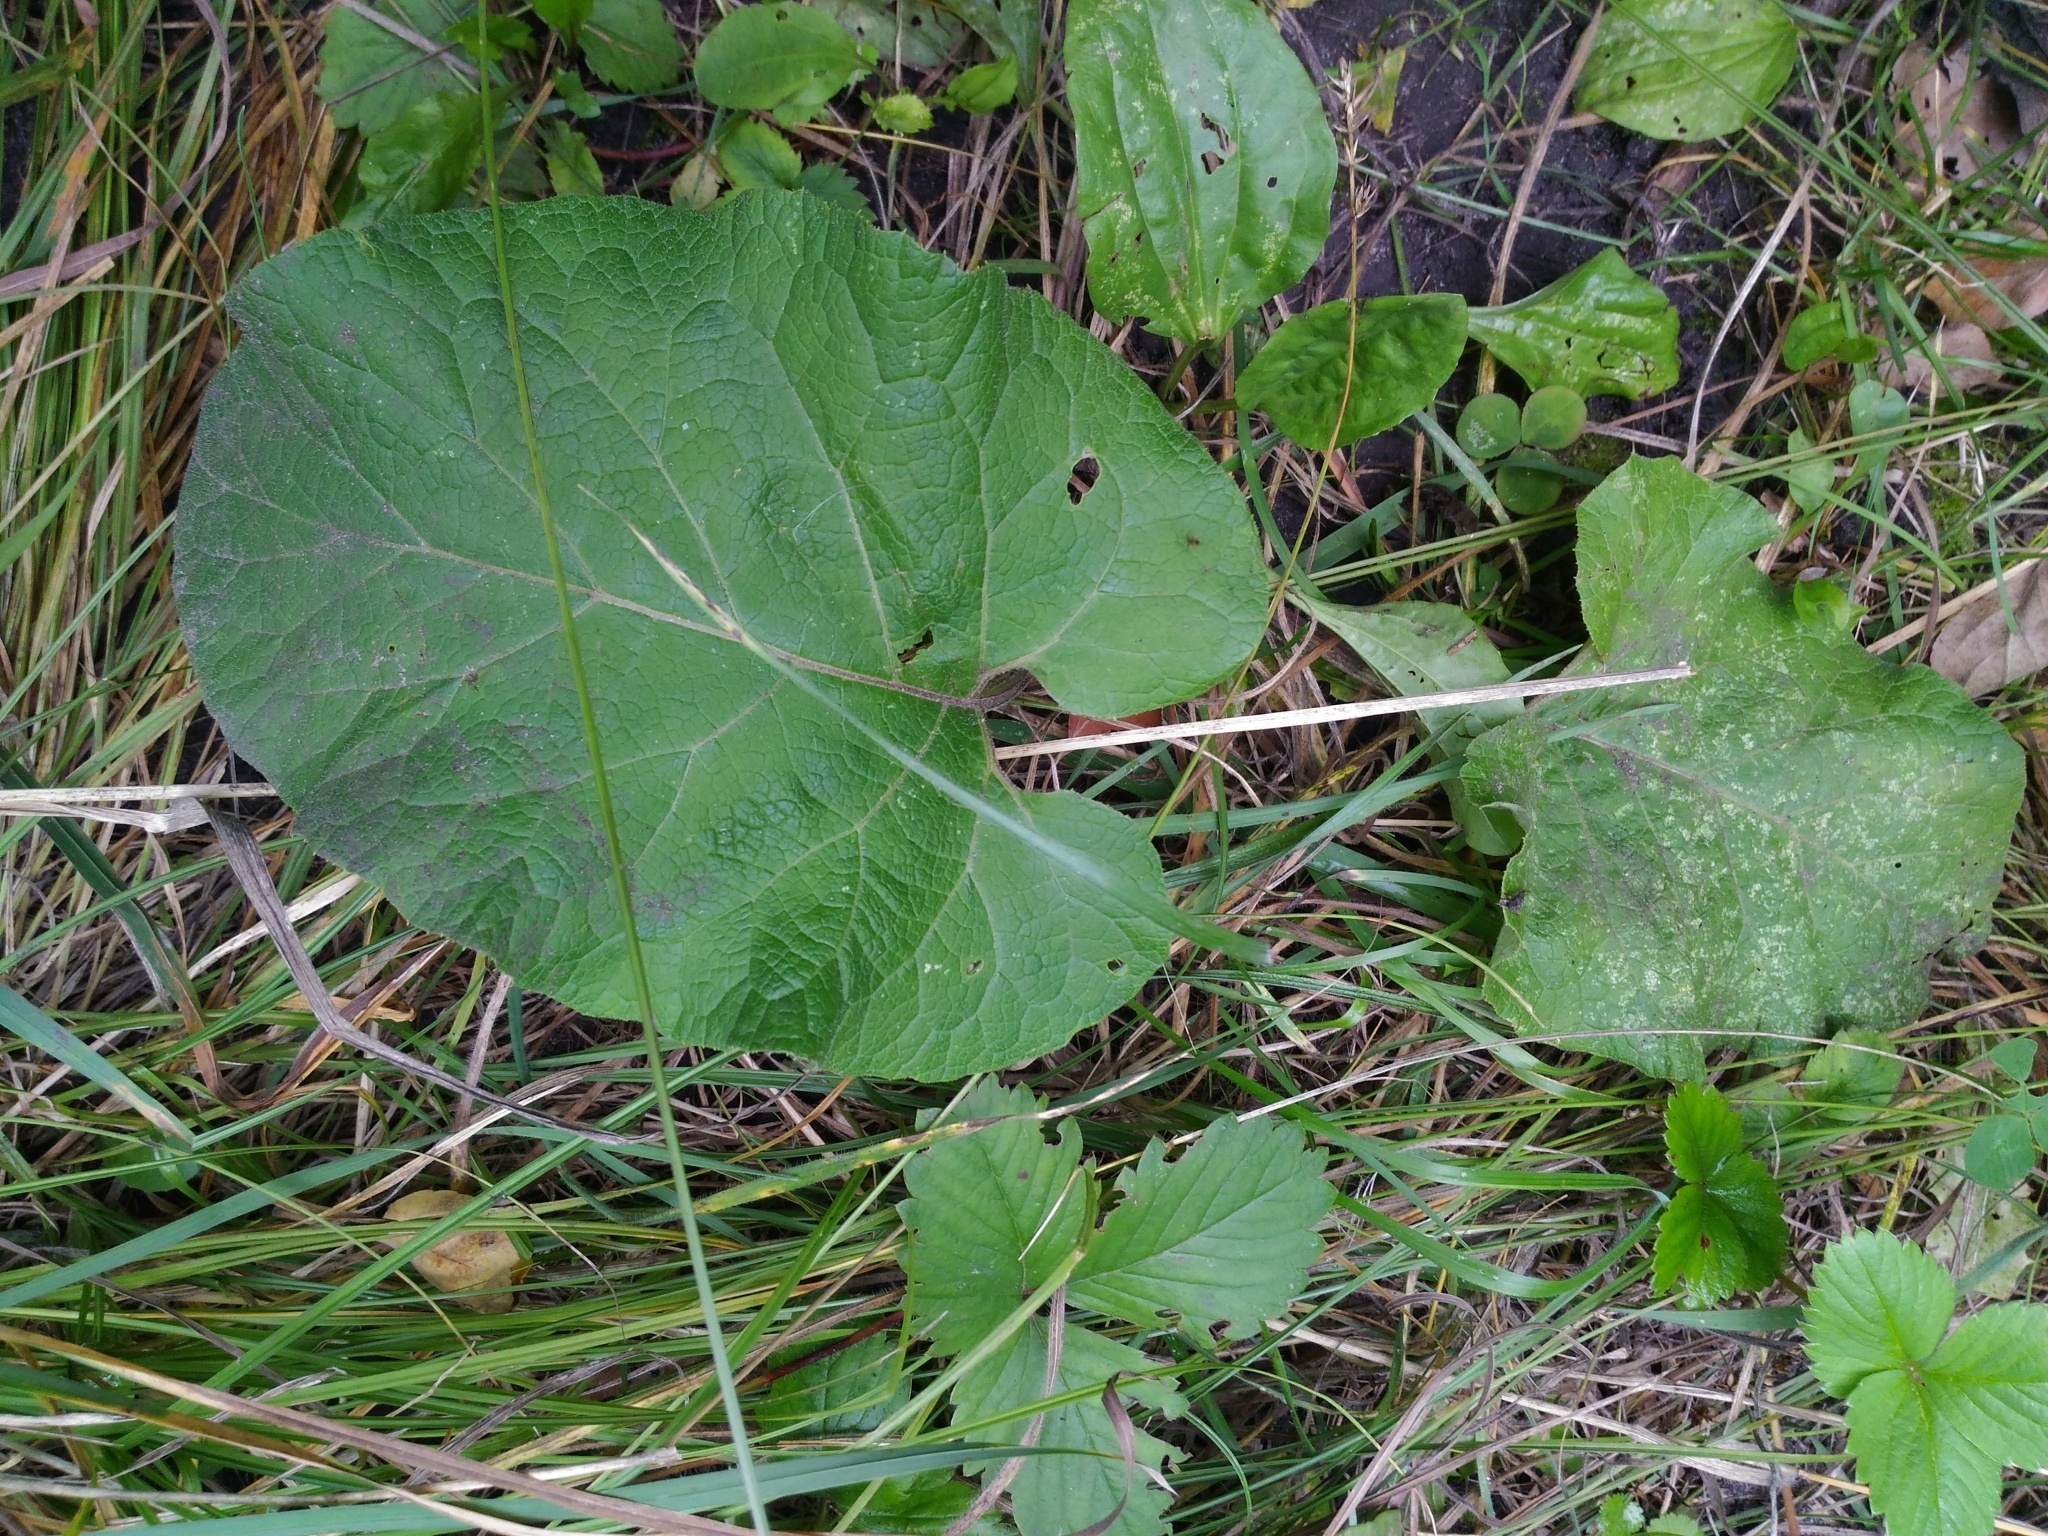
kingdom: Plantae
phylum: Tracheophyta
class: Magnoliopsida
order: Asterales
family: Asteraceae
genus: Arctium
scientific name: Arctium
